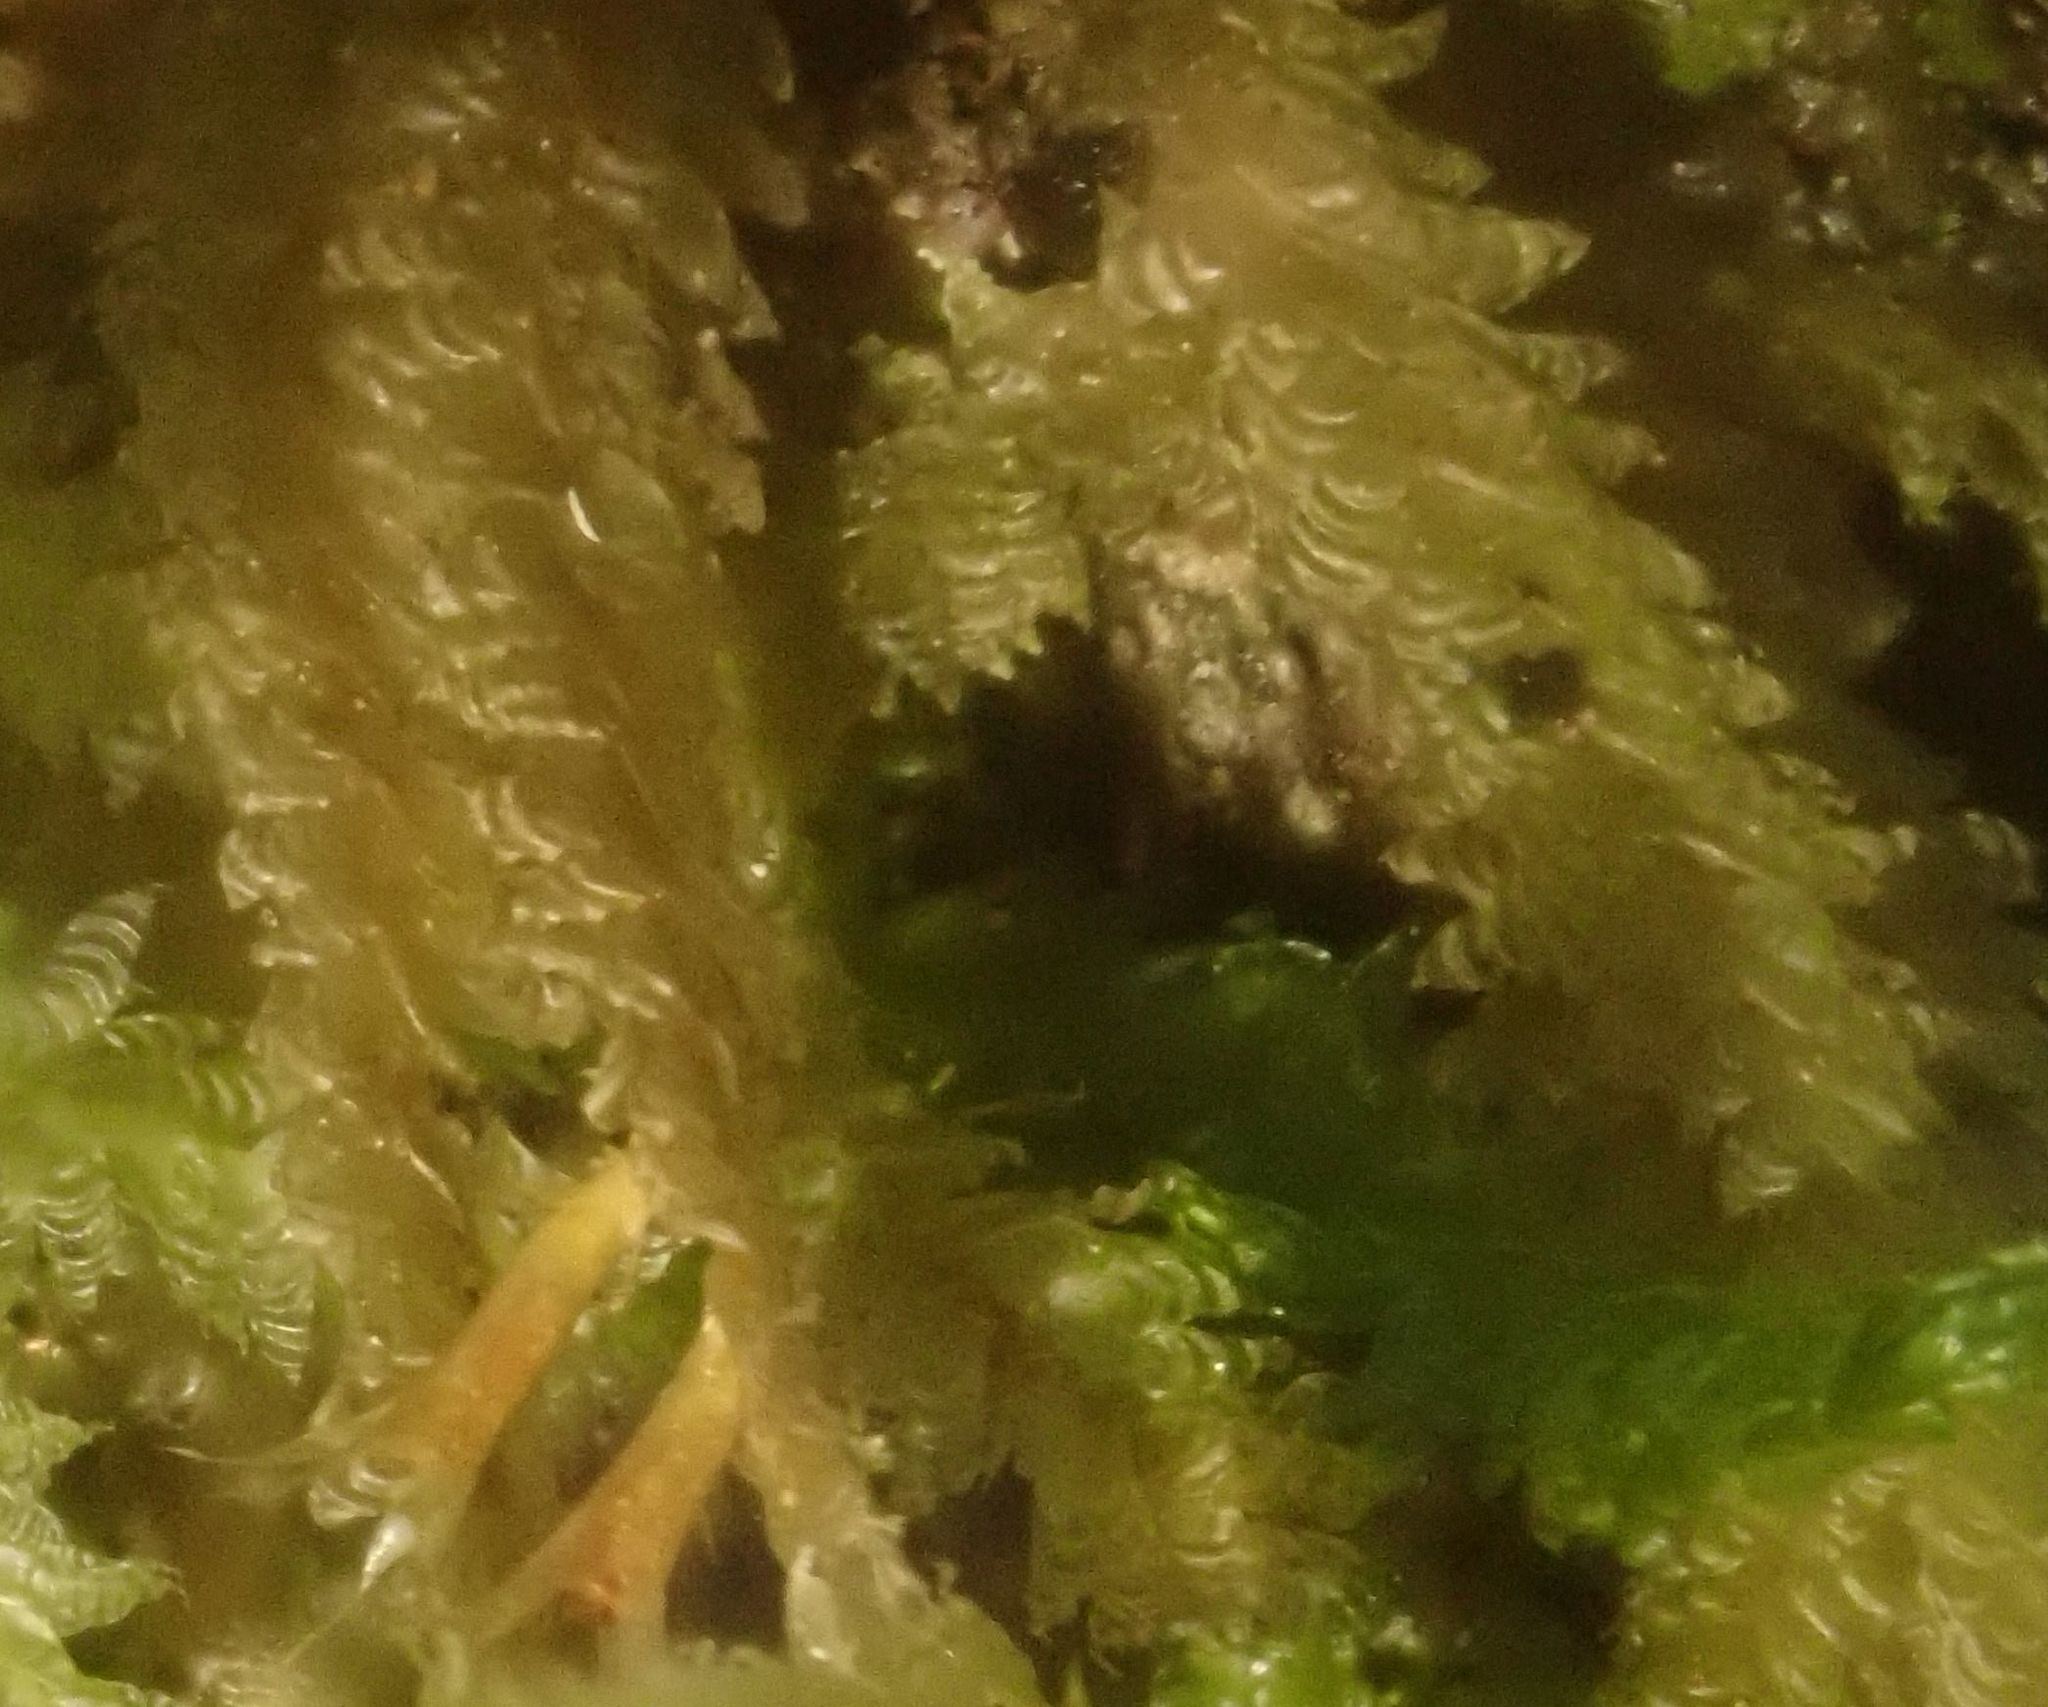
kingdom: Plantae
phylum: Bryophyta
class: Bryopsida
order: Hypnales
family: Neckeraceae
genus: Alleniella
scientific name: Alleniella hymenodonta
